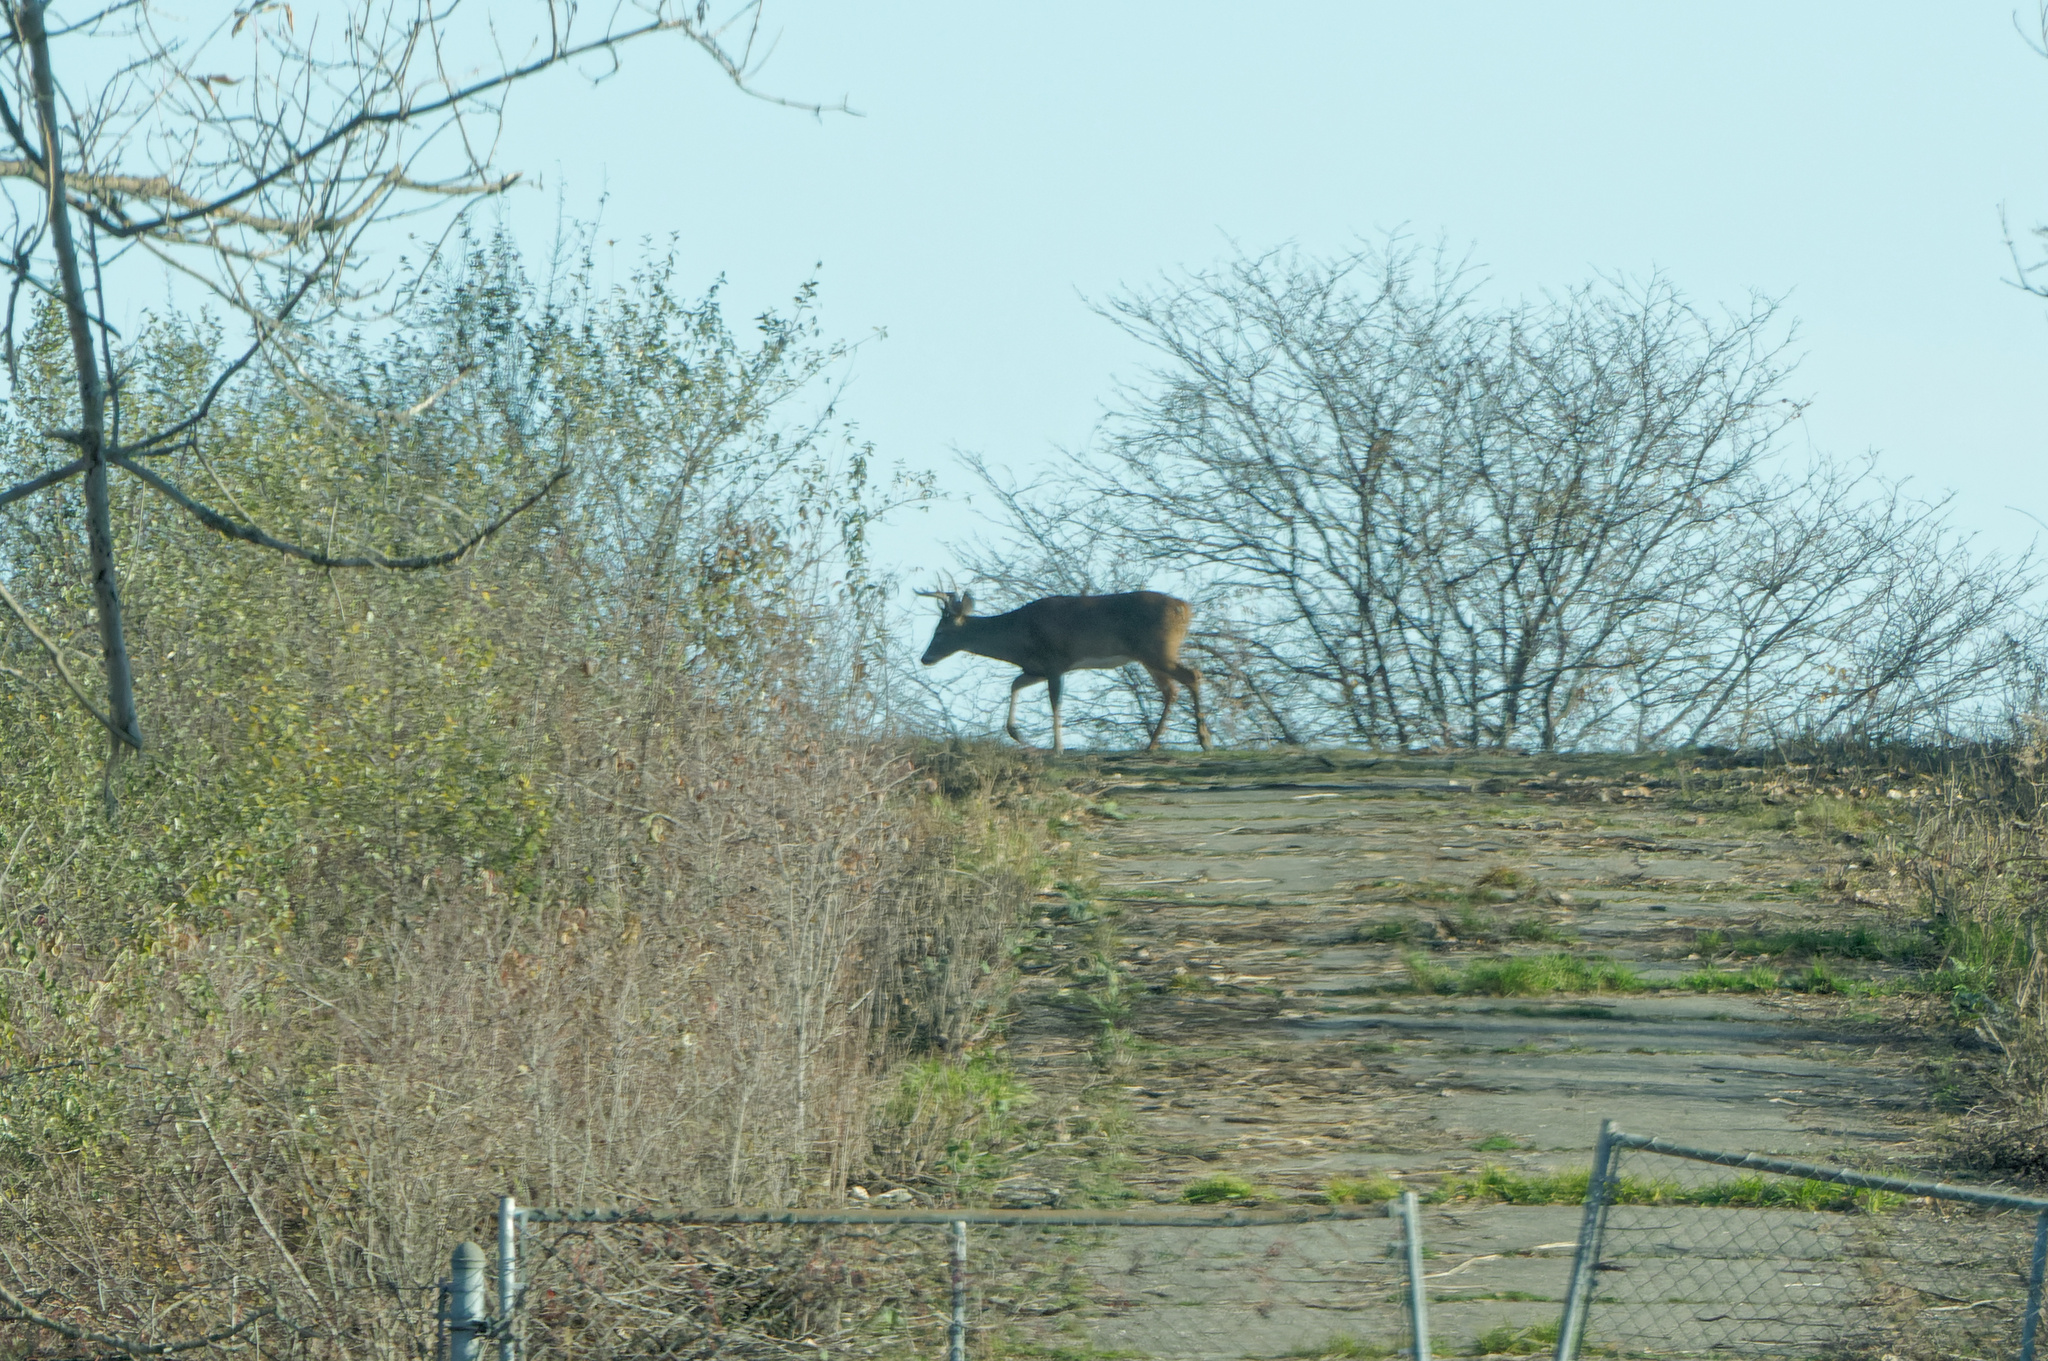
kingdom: Animalia
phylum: Chordata
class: Mammalia
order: Artiodactyla
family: Cervidae
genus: Odocoileus
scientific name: Odocoileus virginianus
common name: White-tailed deer
